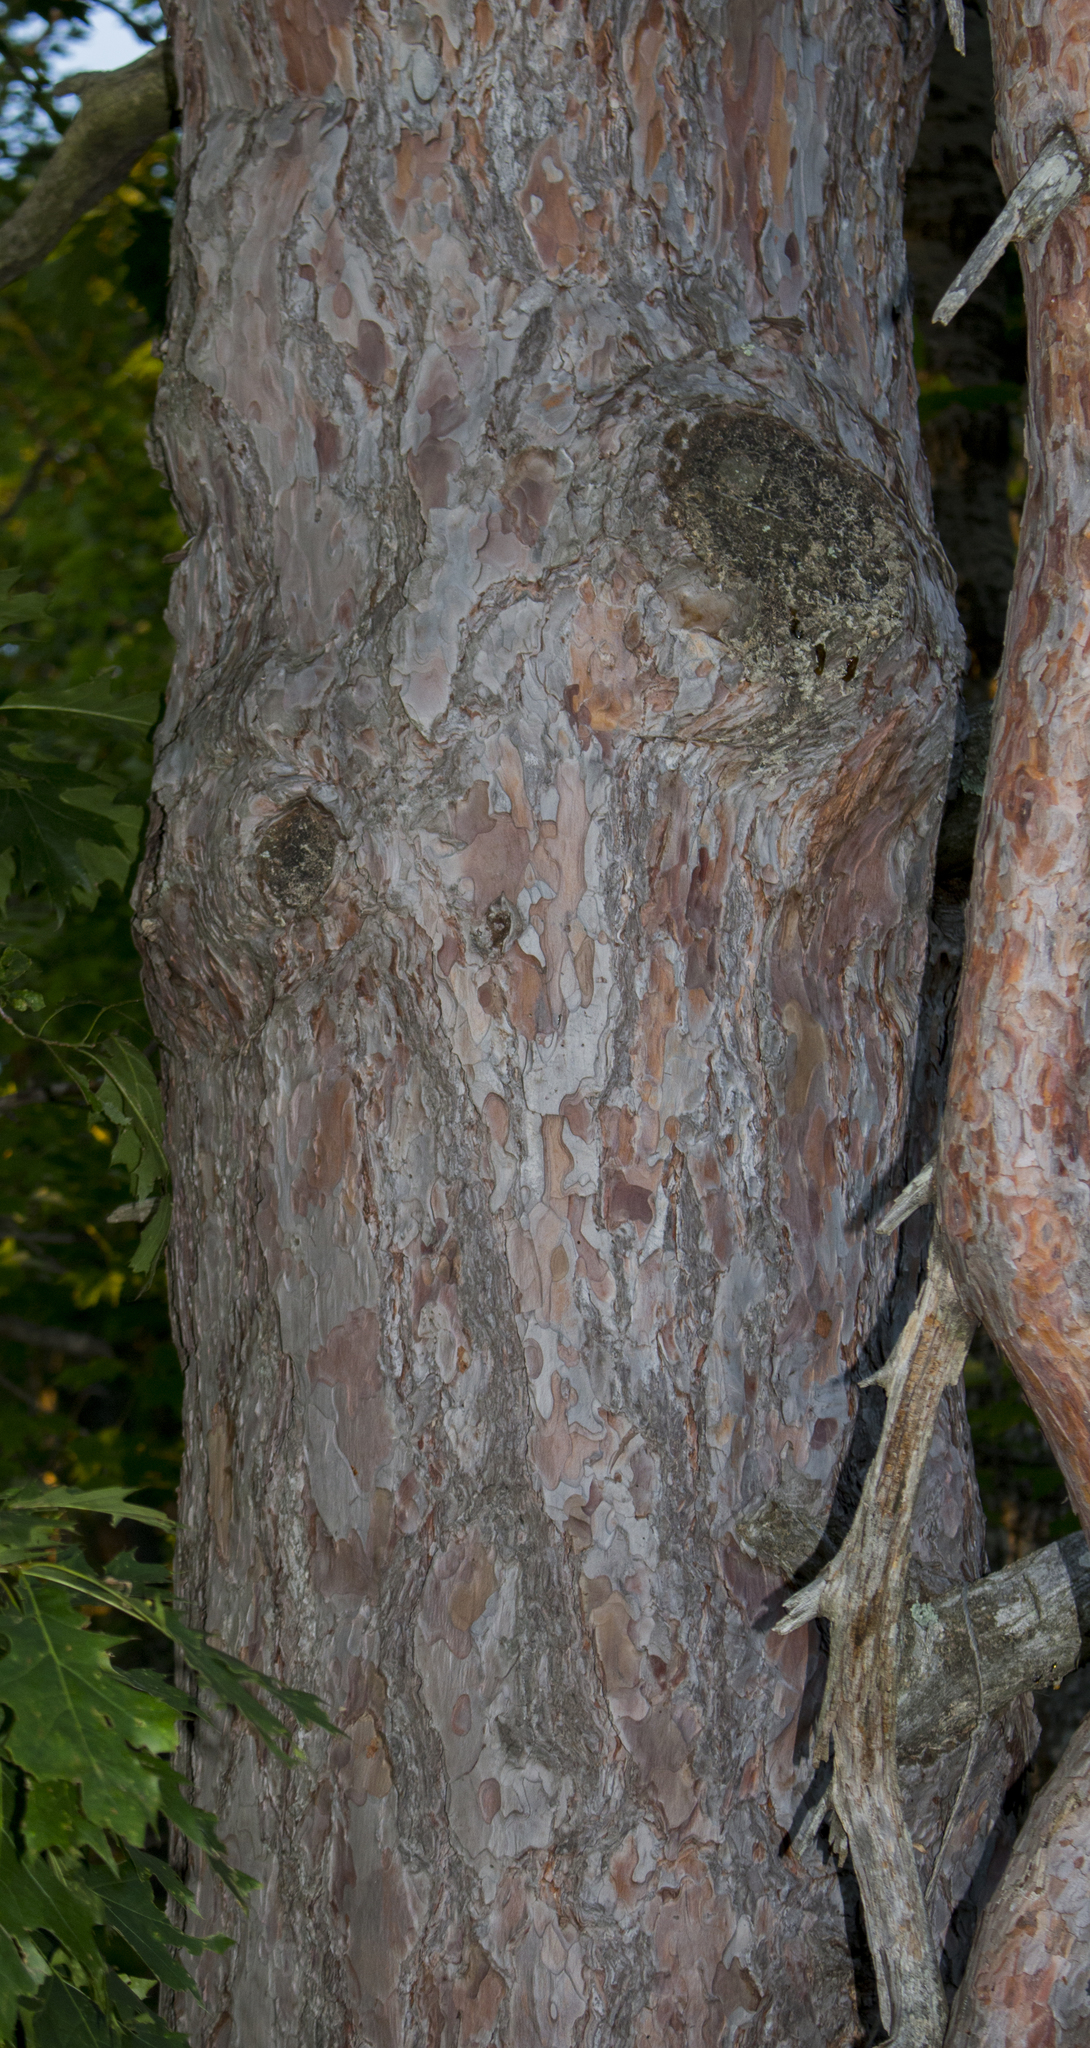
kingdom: Plantae
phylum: Tracheophyta
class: Pinopsida
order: Pinales
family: Pinaceae
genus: Pinus
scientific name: Pinus resinosa
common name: Norway pine
